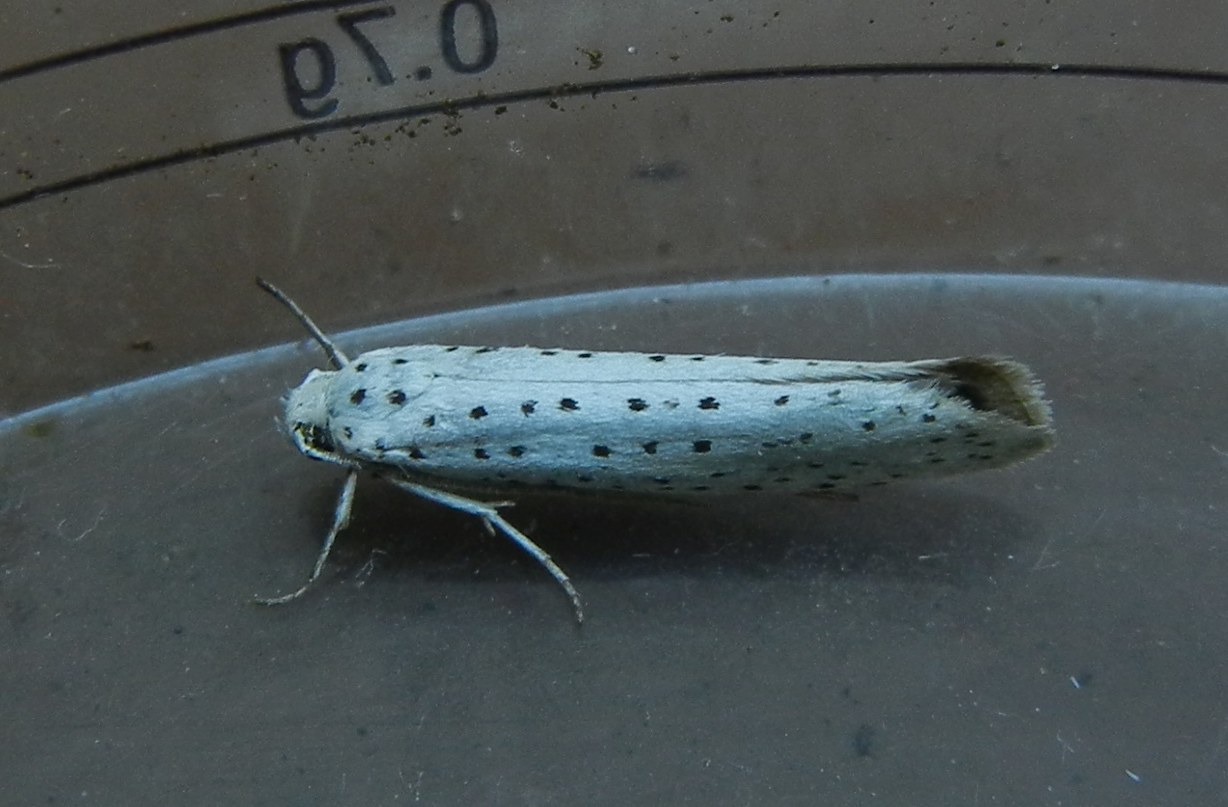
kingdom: Animalia
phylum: Arthropoda
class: Insecta
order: Lepidoptera
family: Yponomeutidae
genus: Yponomeuta
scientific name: Yponomeuta evonymella
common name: Bird-cherry ermine
